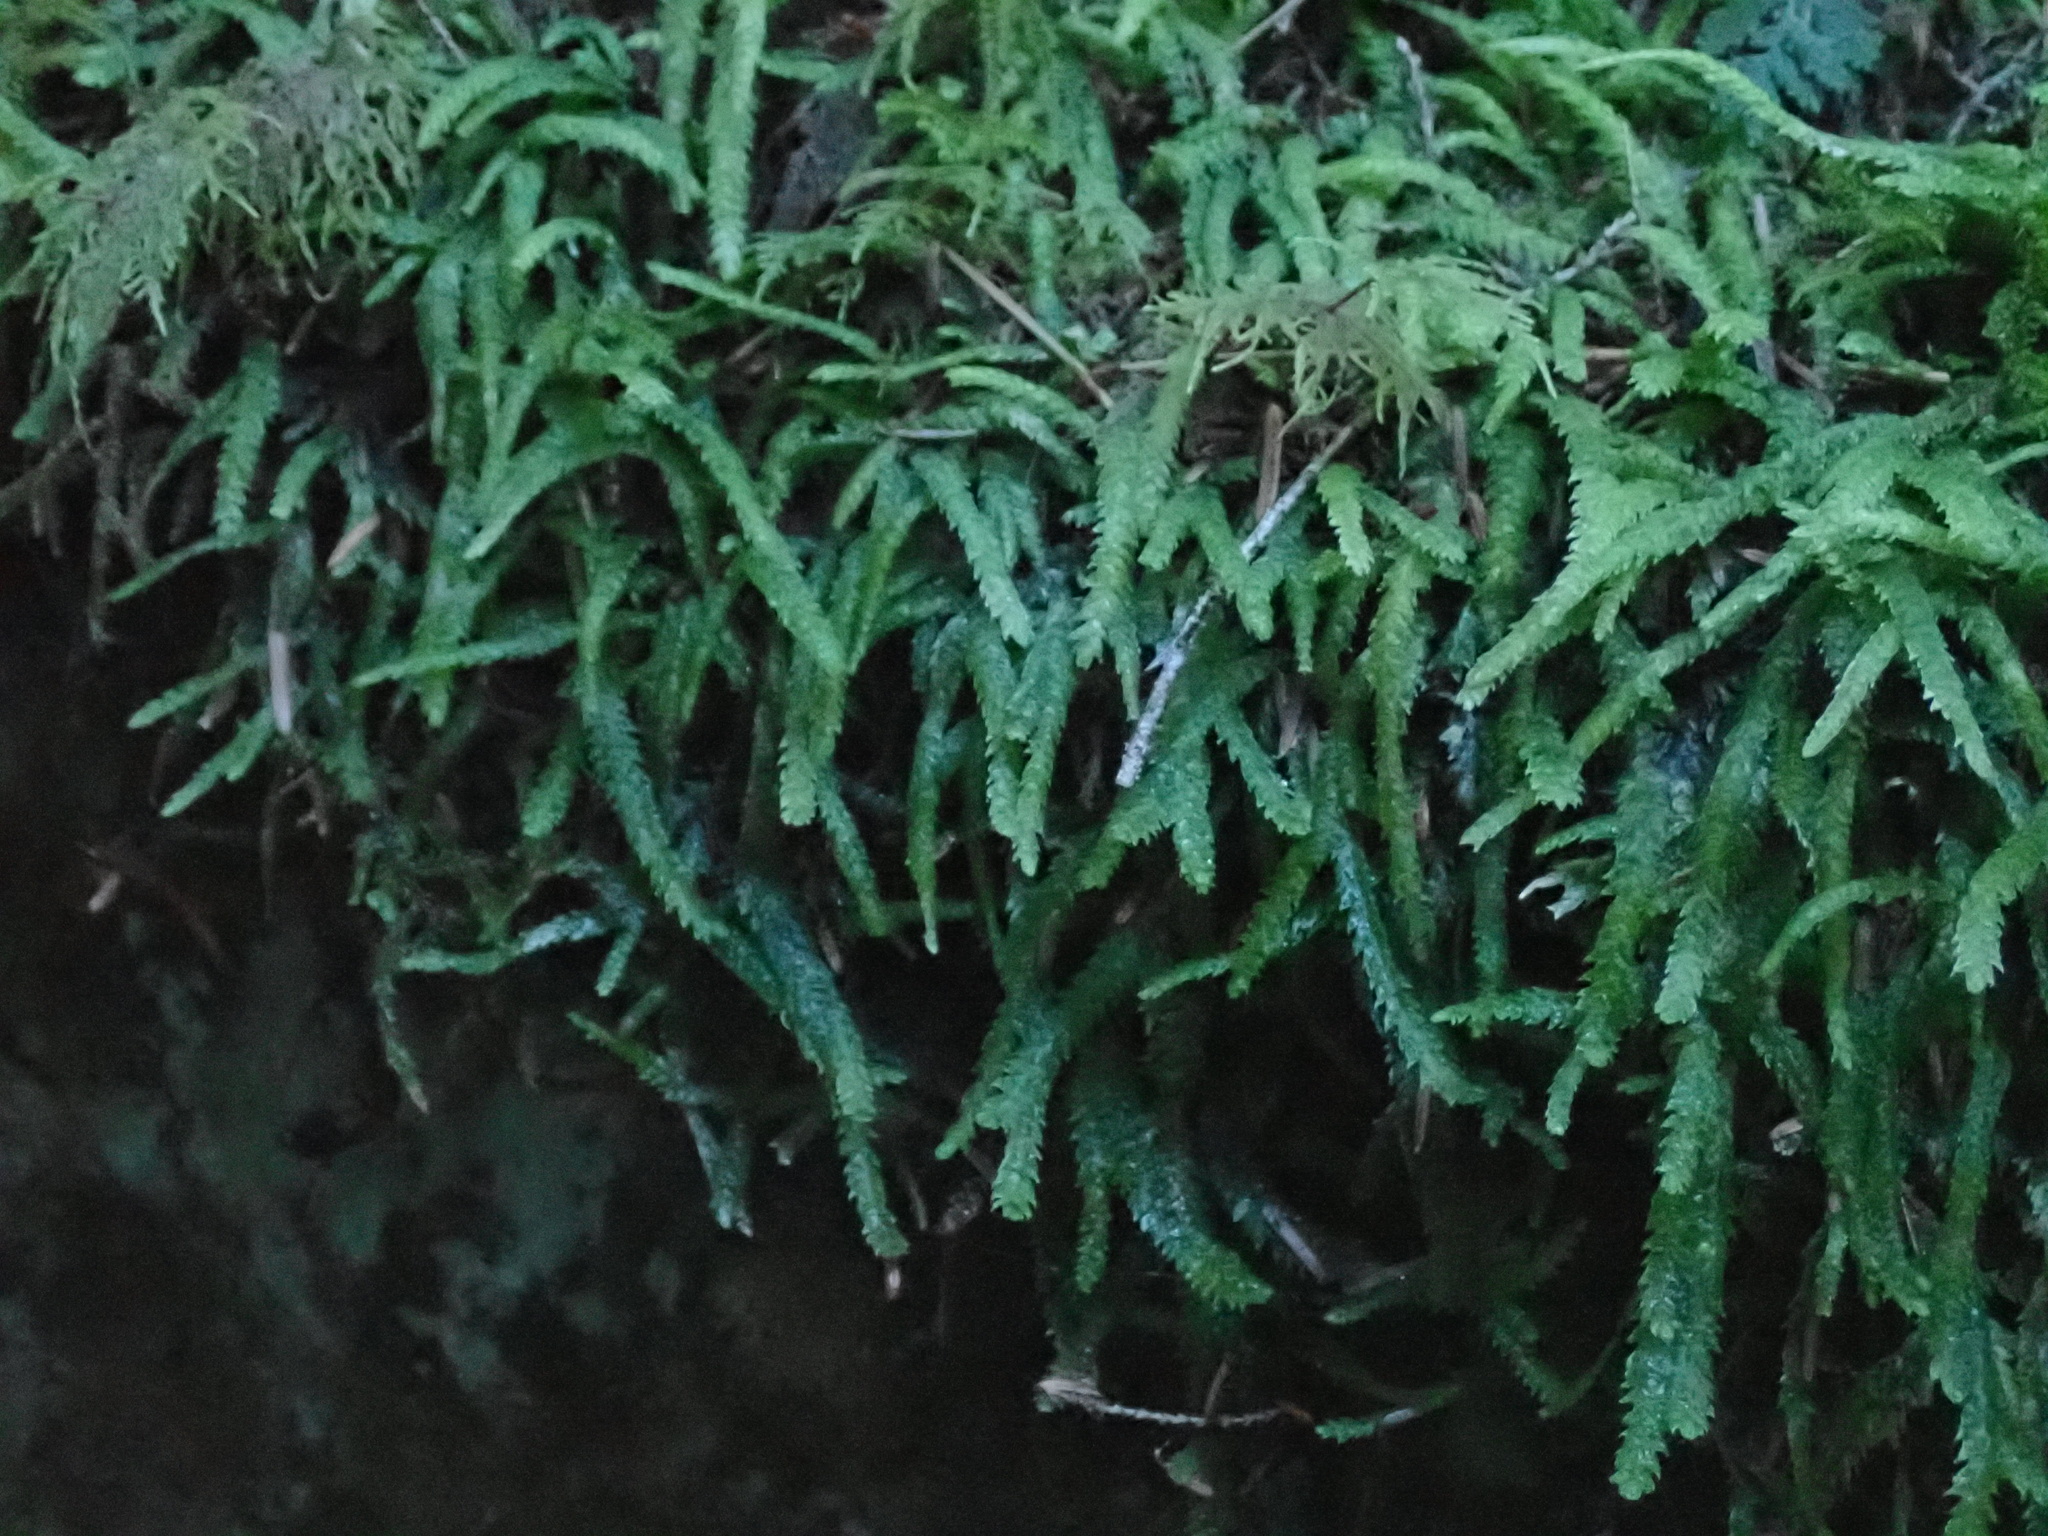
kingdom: Plantae
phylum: Bryophyta
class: Bryopsida
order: Hypnales
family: Plagiotheciaceae
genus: Plagiothecium
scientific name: Plagiothecium undulatum
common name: Waved silk-moss
